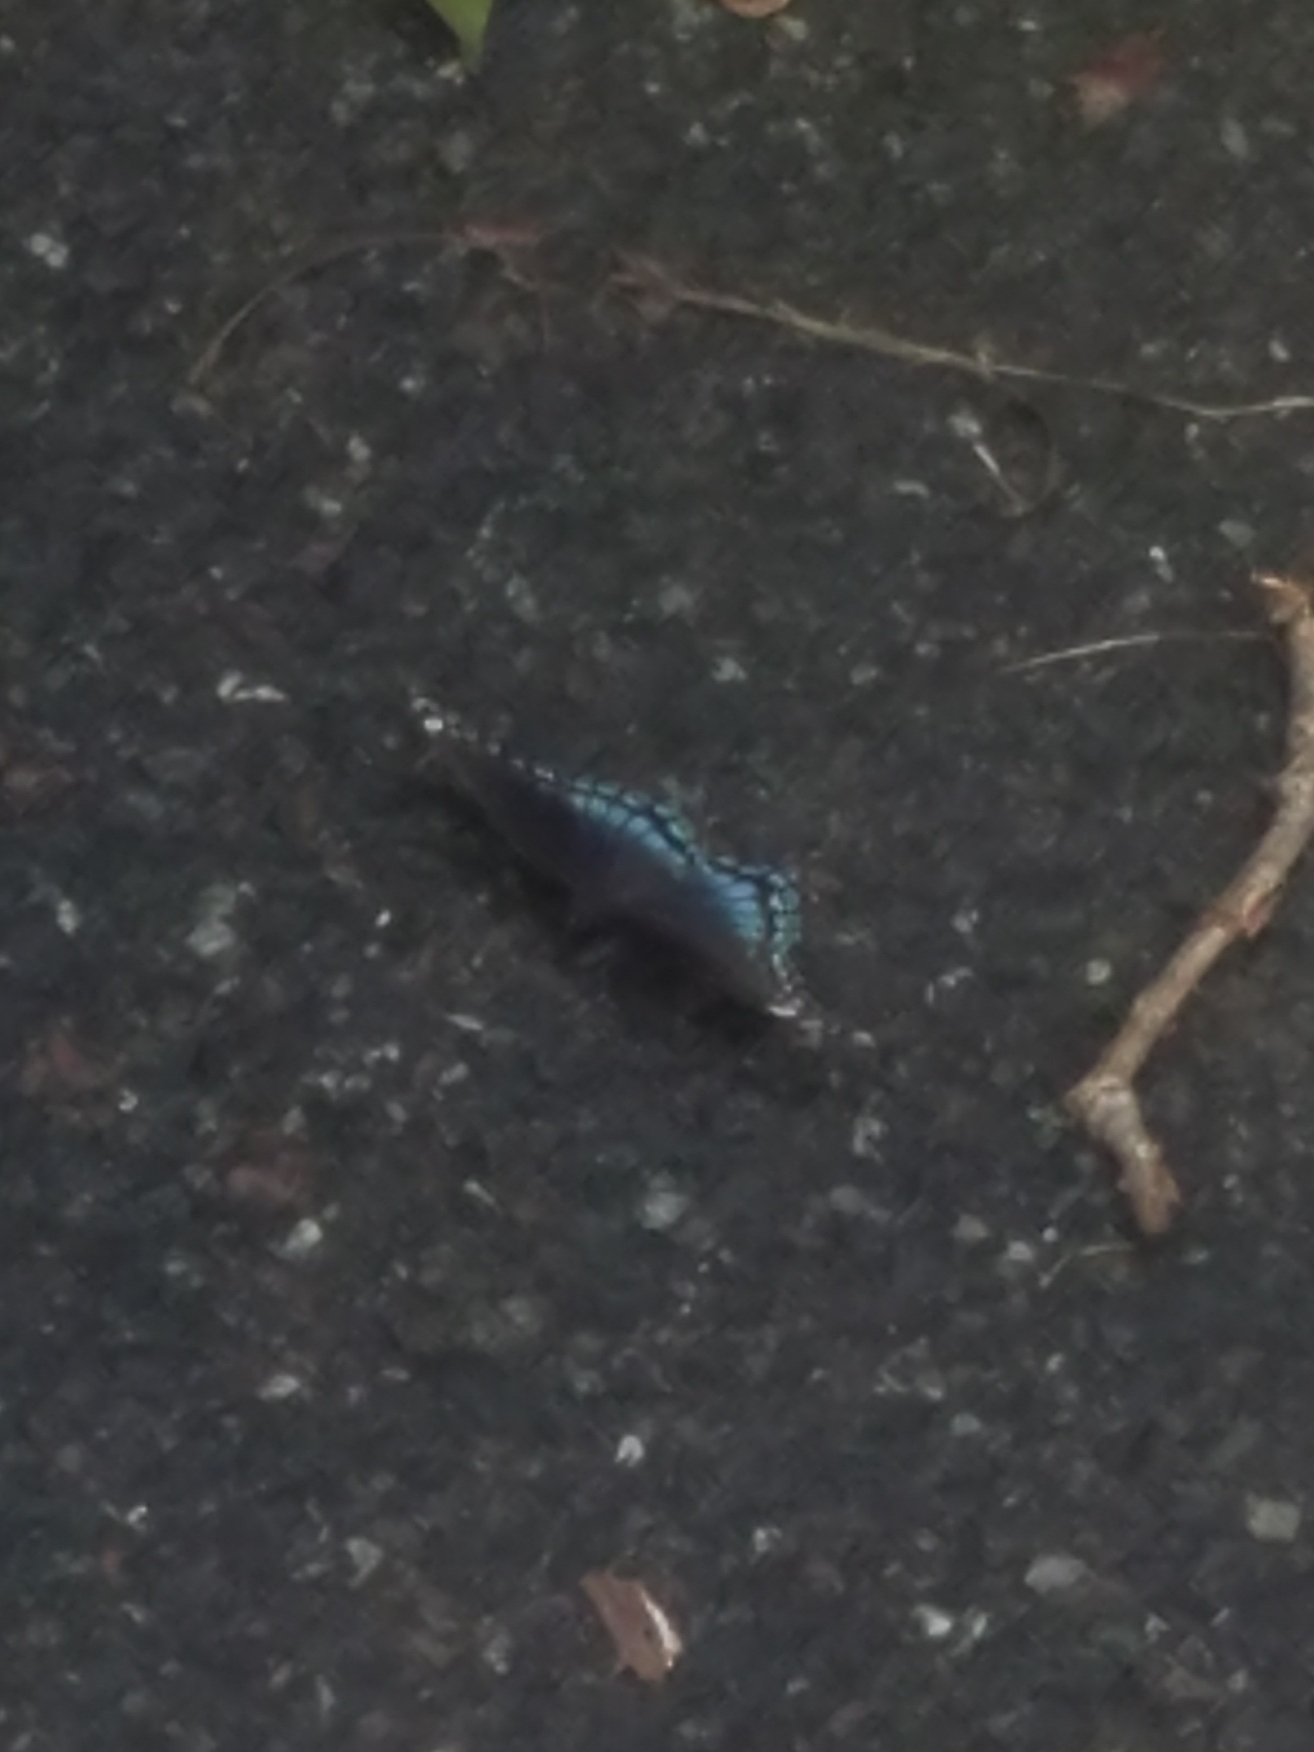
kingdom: Animalia
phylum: Arthropoda
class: Insecta
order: Lepidoptera
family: Nymphalidae
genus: Limenitis
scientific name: Limenitis astyanax
